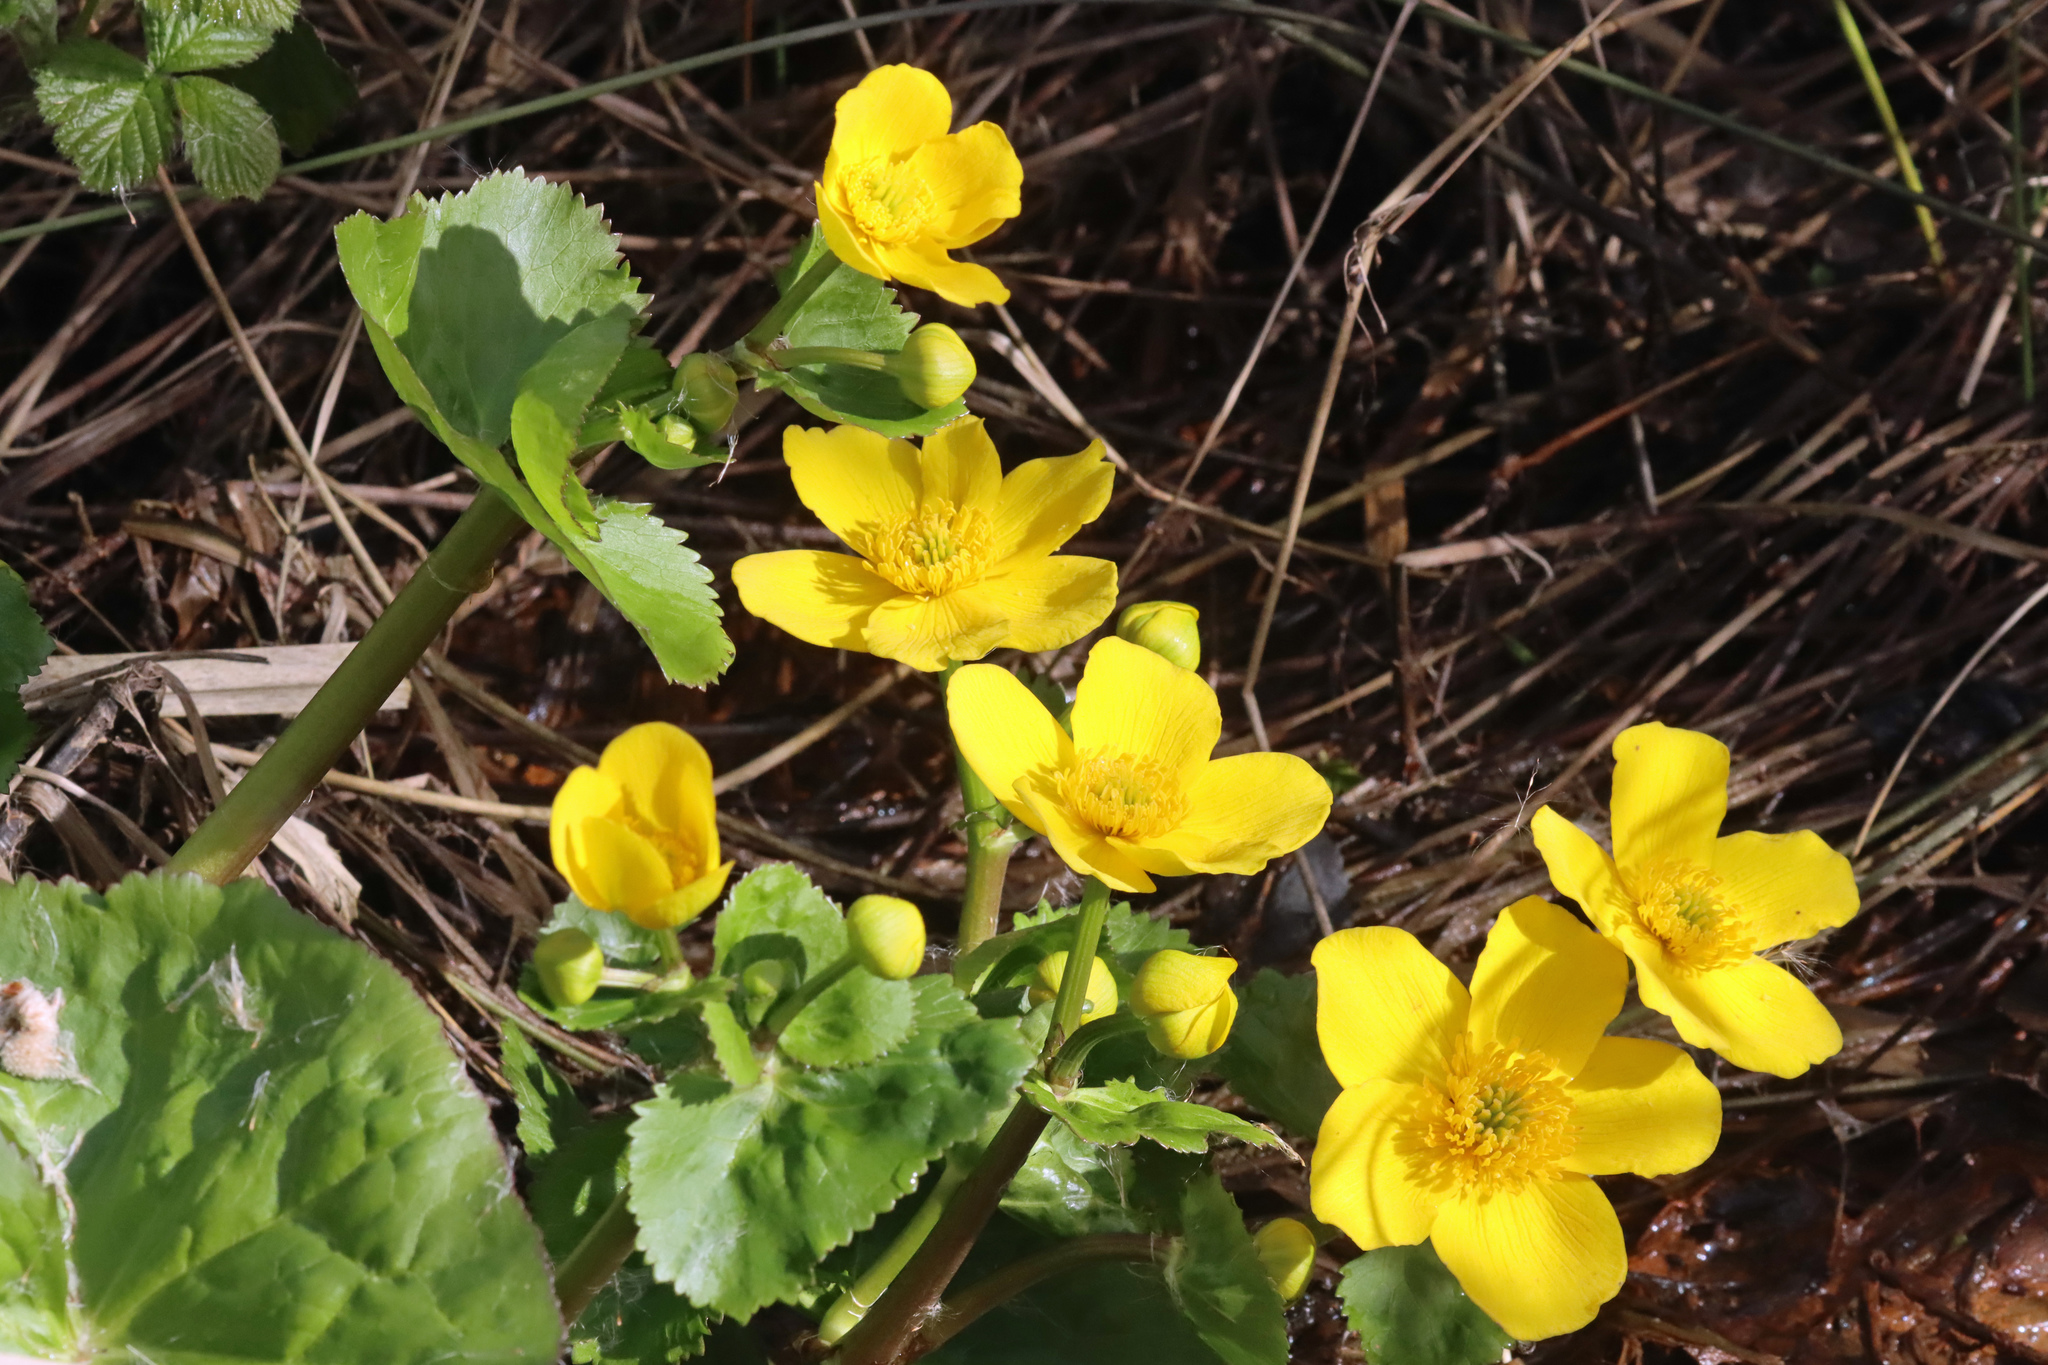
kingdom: Plantae
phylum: Tracheophyta
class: Magnoliopsida
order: Ranunculales
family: Ranunculaceae
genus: Caltha
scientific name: Caltha palustris
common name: Marsh marigold
